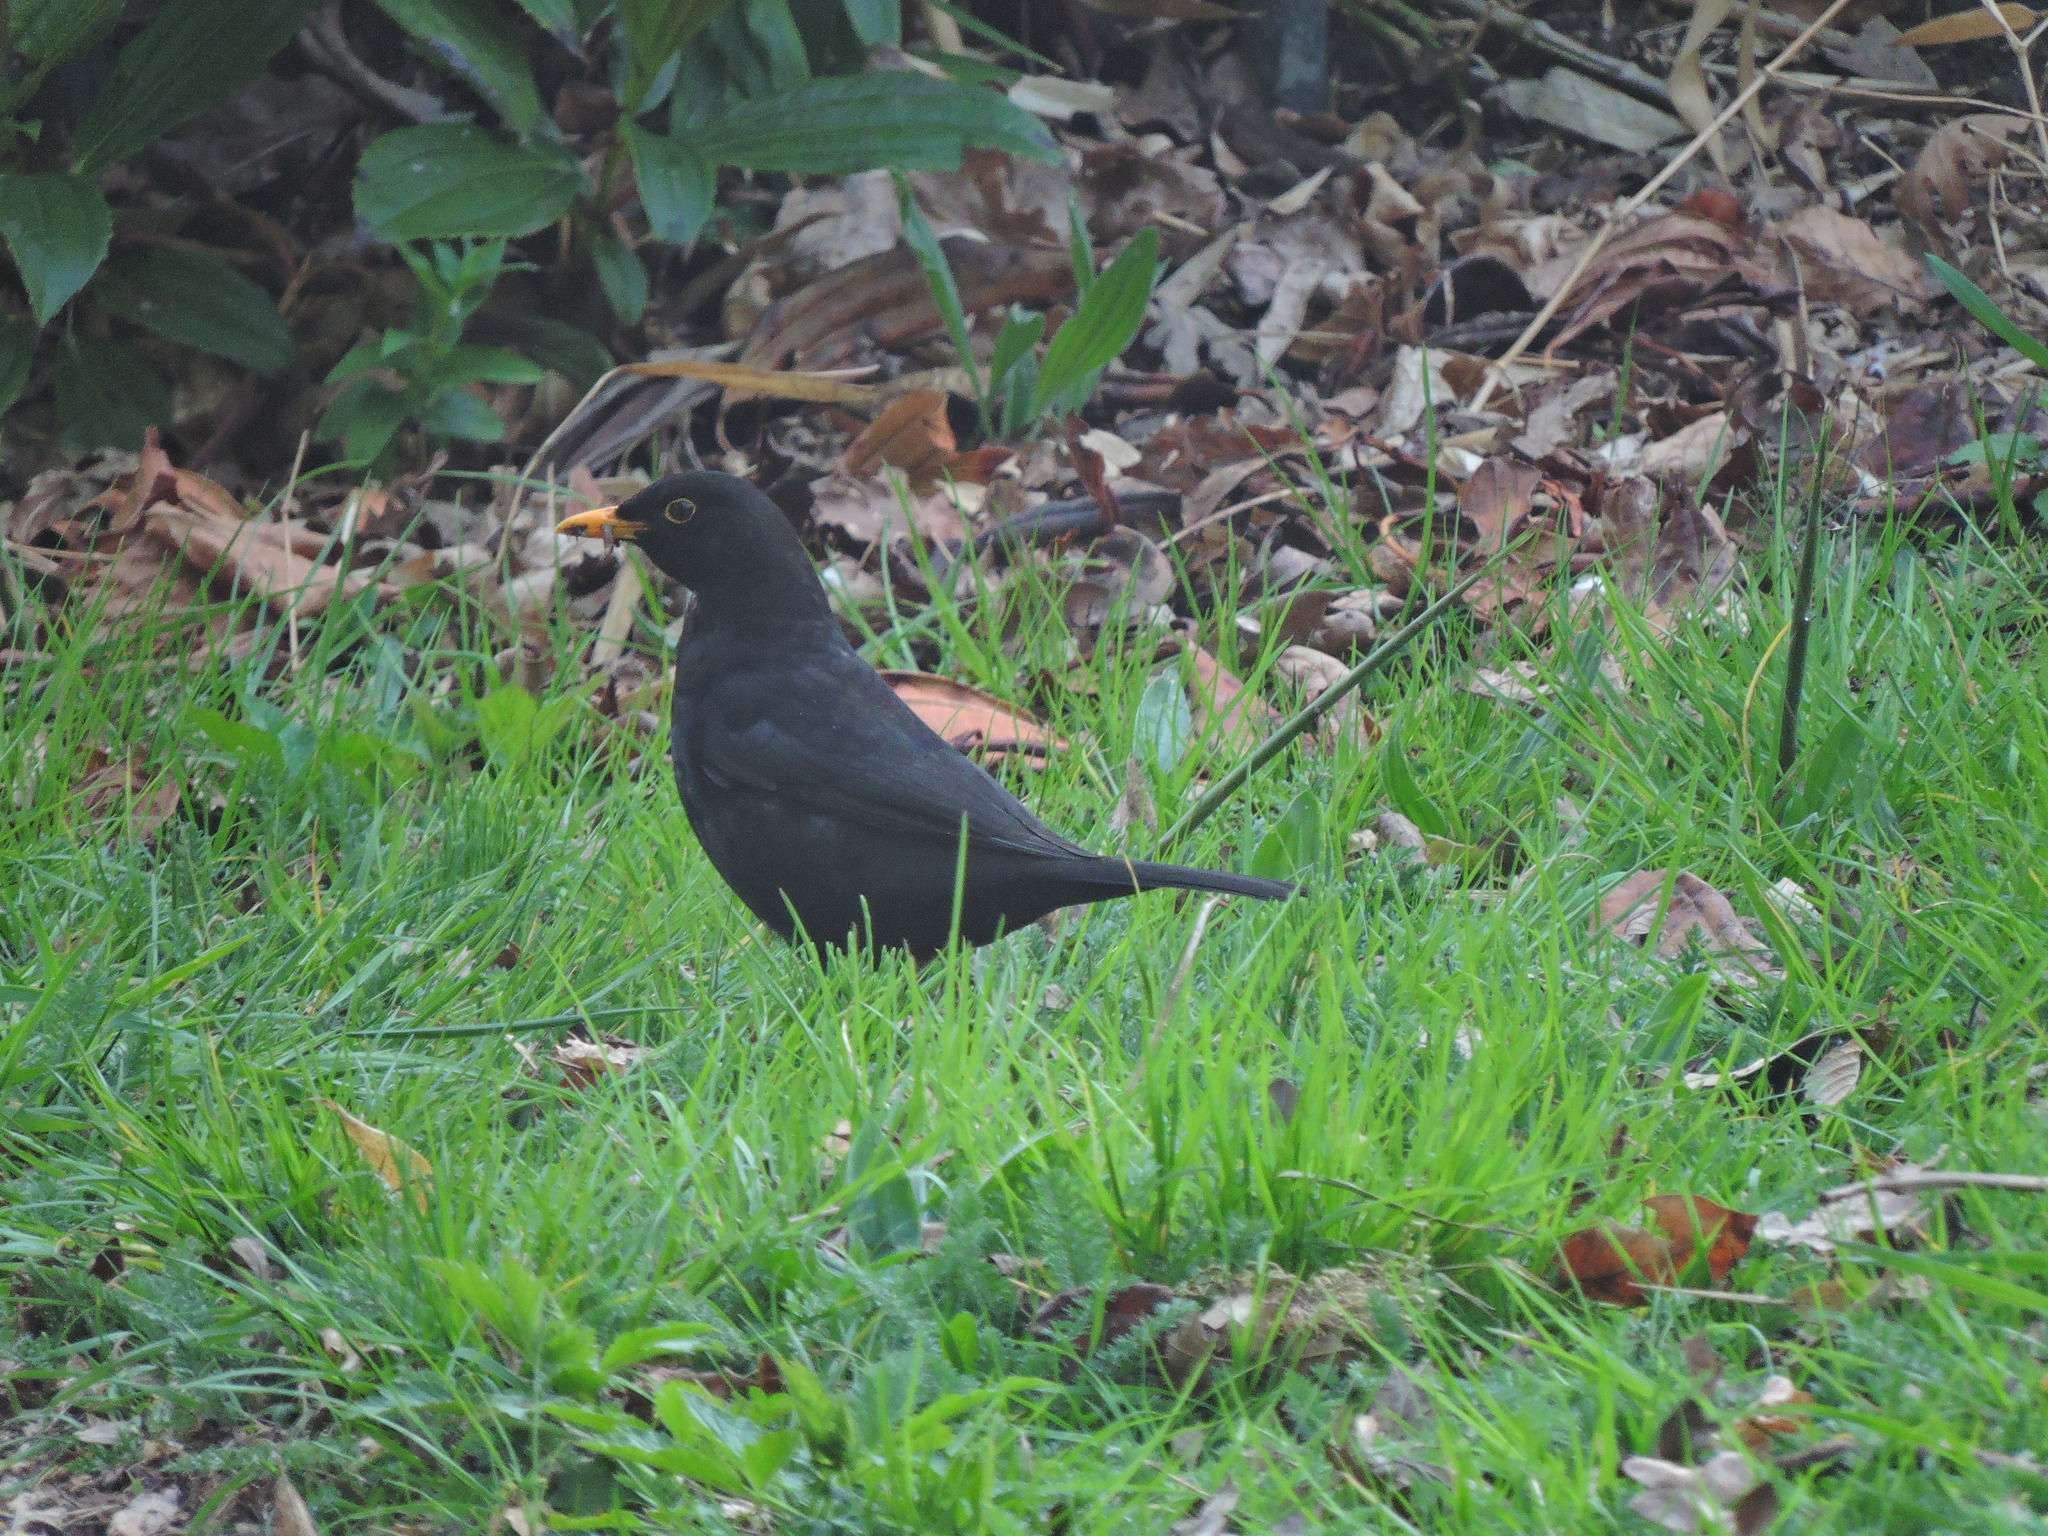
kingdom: Animalia
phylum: Chordata
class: Aves
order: Passeriformes
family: Turdidae
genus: Turdus
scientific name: Turdus merula
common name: Common blackbird
